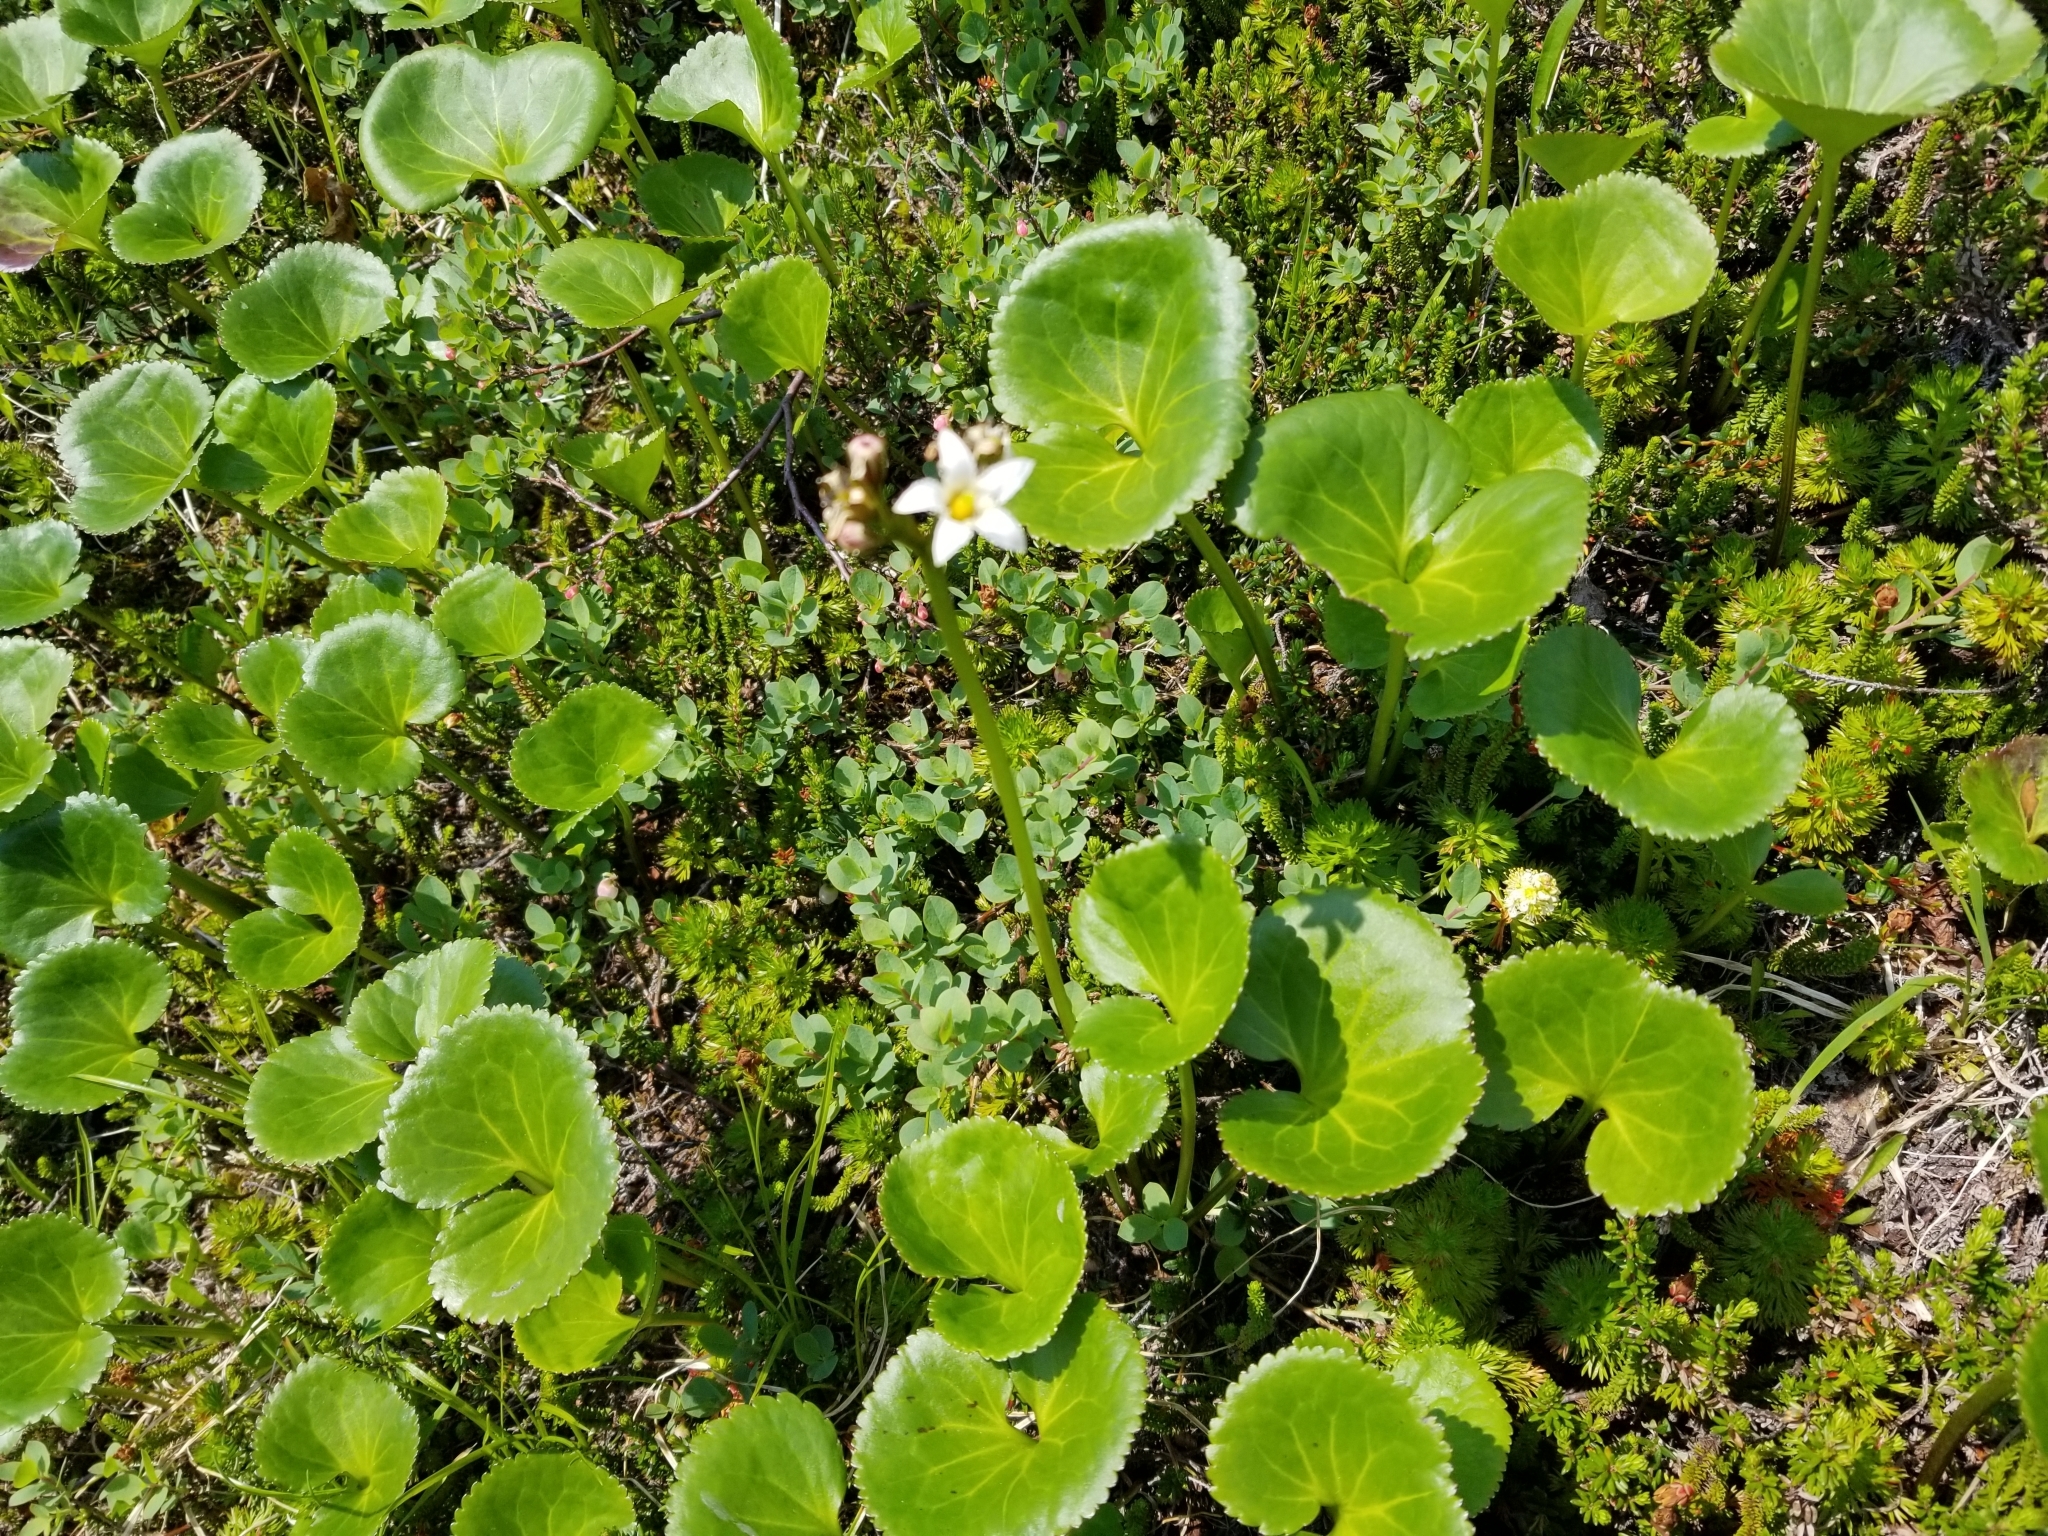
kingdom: Plantae
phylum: Tracheophyta
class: Magnoliopsida
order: Asterales
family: Menyanthaceae
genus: Nephrophyllidium
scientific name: Nephrophyllidium crista-galli
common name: Deer-cabbage
